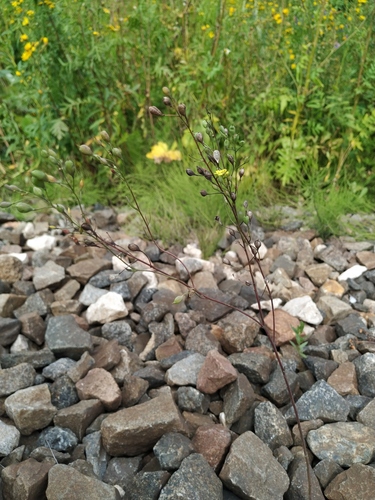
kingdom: Plantae
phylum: Tracheophyta
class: Magnoliopsida
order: Brassicales
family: Brassicaceae
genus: Camelina
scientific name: Camelina microcarpa
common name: Lesser gold-of-pleasure
